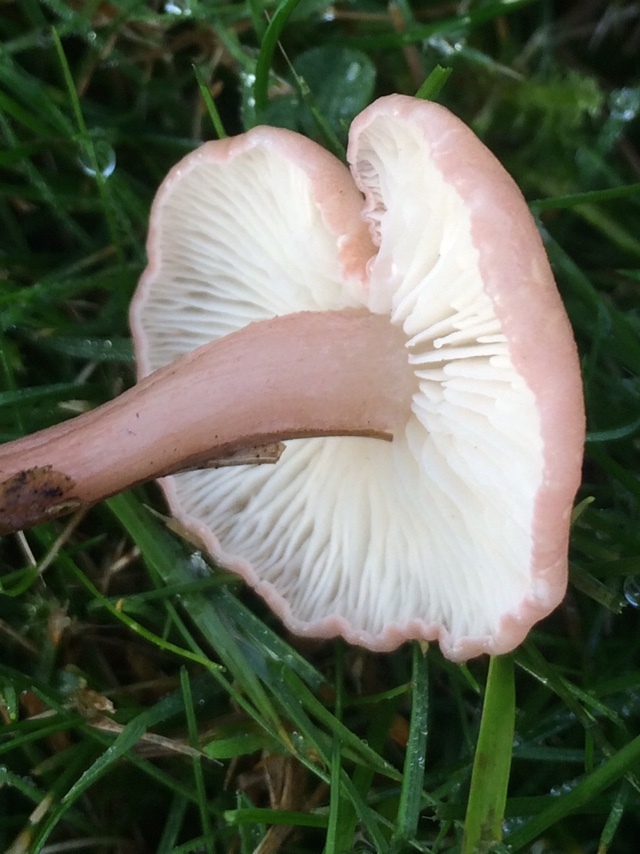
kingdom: Fungi
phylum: Basidiomycota
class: Agaricomycetes
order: Agaricales
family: Lyophyllaceae
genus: Calocybe
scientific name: Calocybe carnea
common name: Pink domecap
